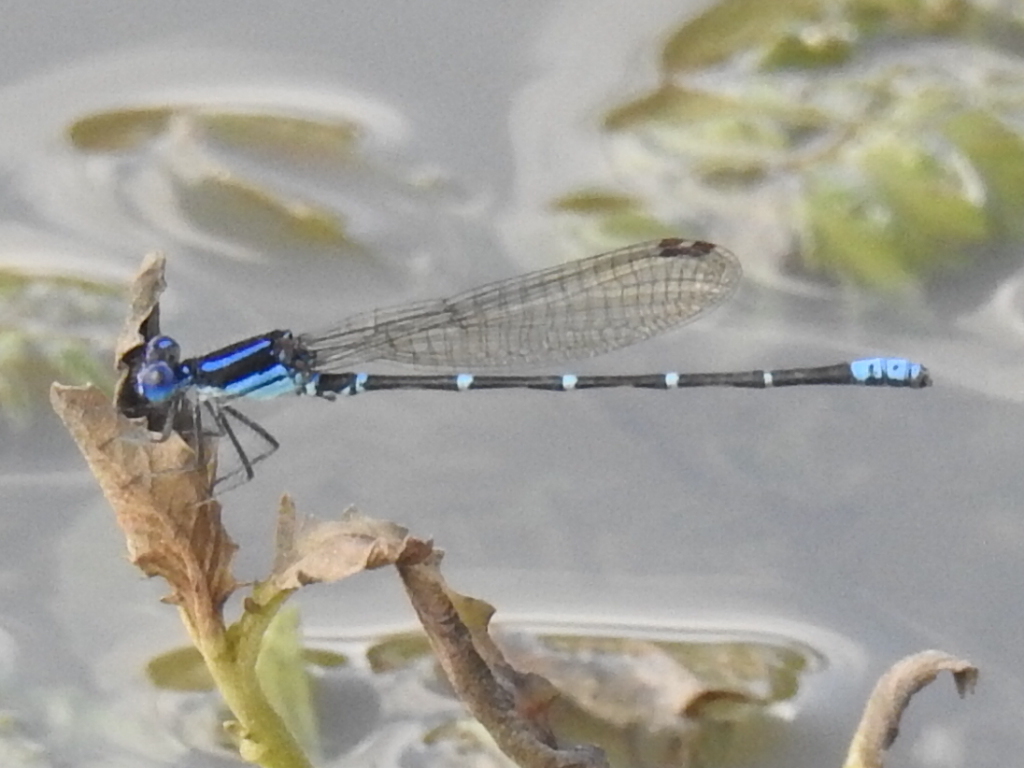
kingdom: Animalia
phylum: Arthropoda
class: Insecta
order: Odonata
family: Coenagrionidae
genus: Argia
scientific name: Argia sedula
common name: Blue-ringed dancer
